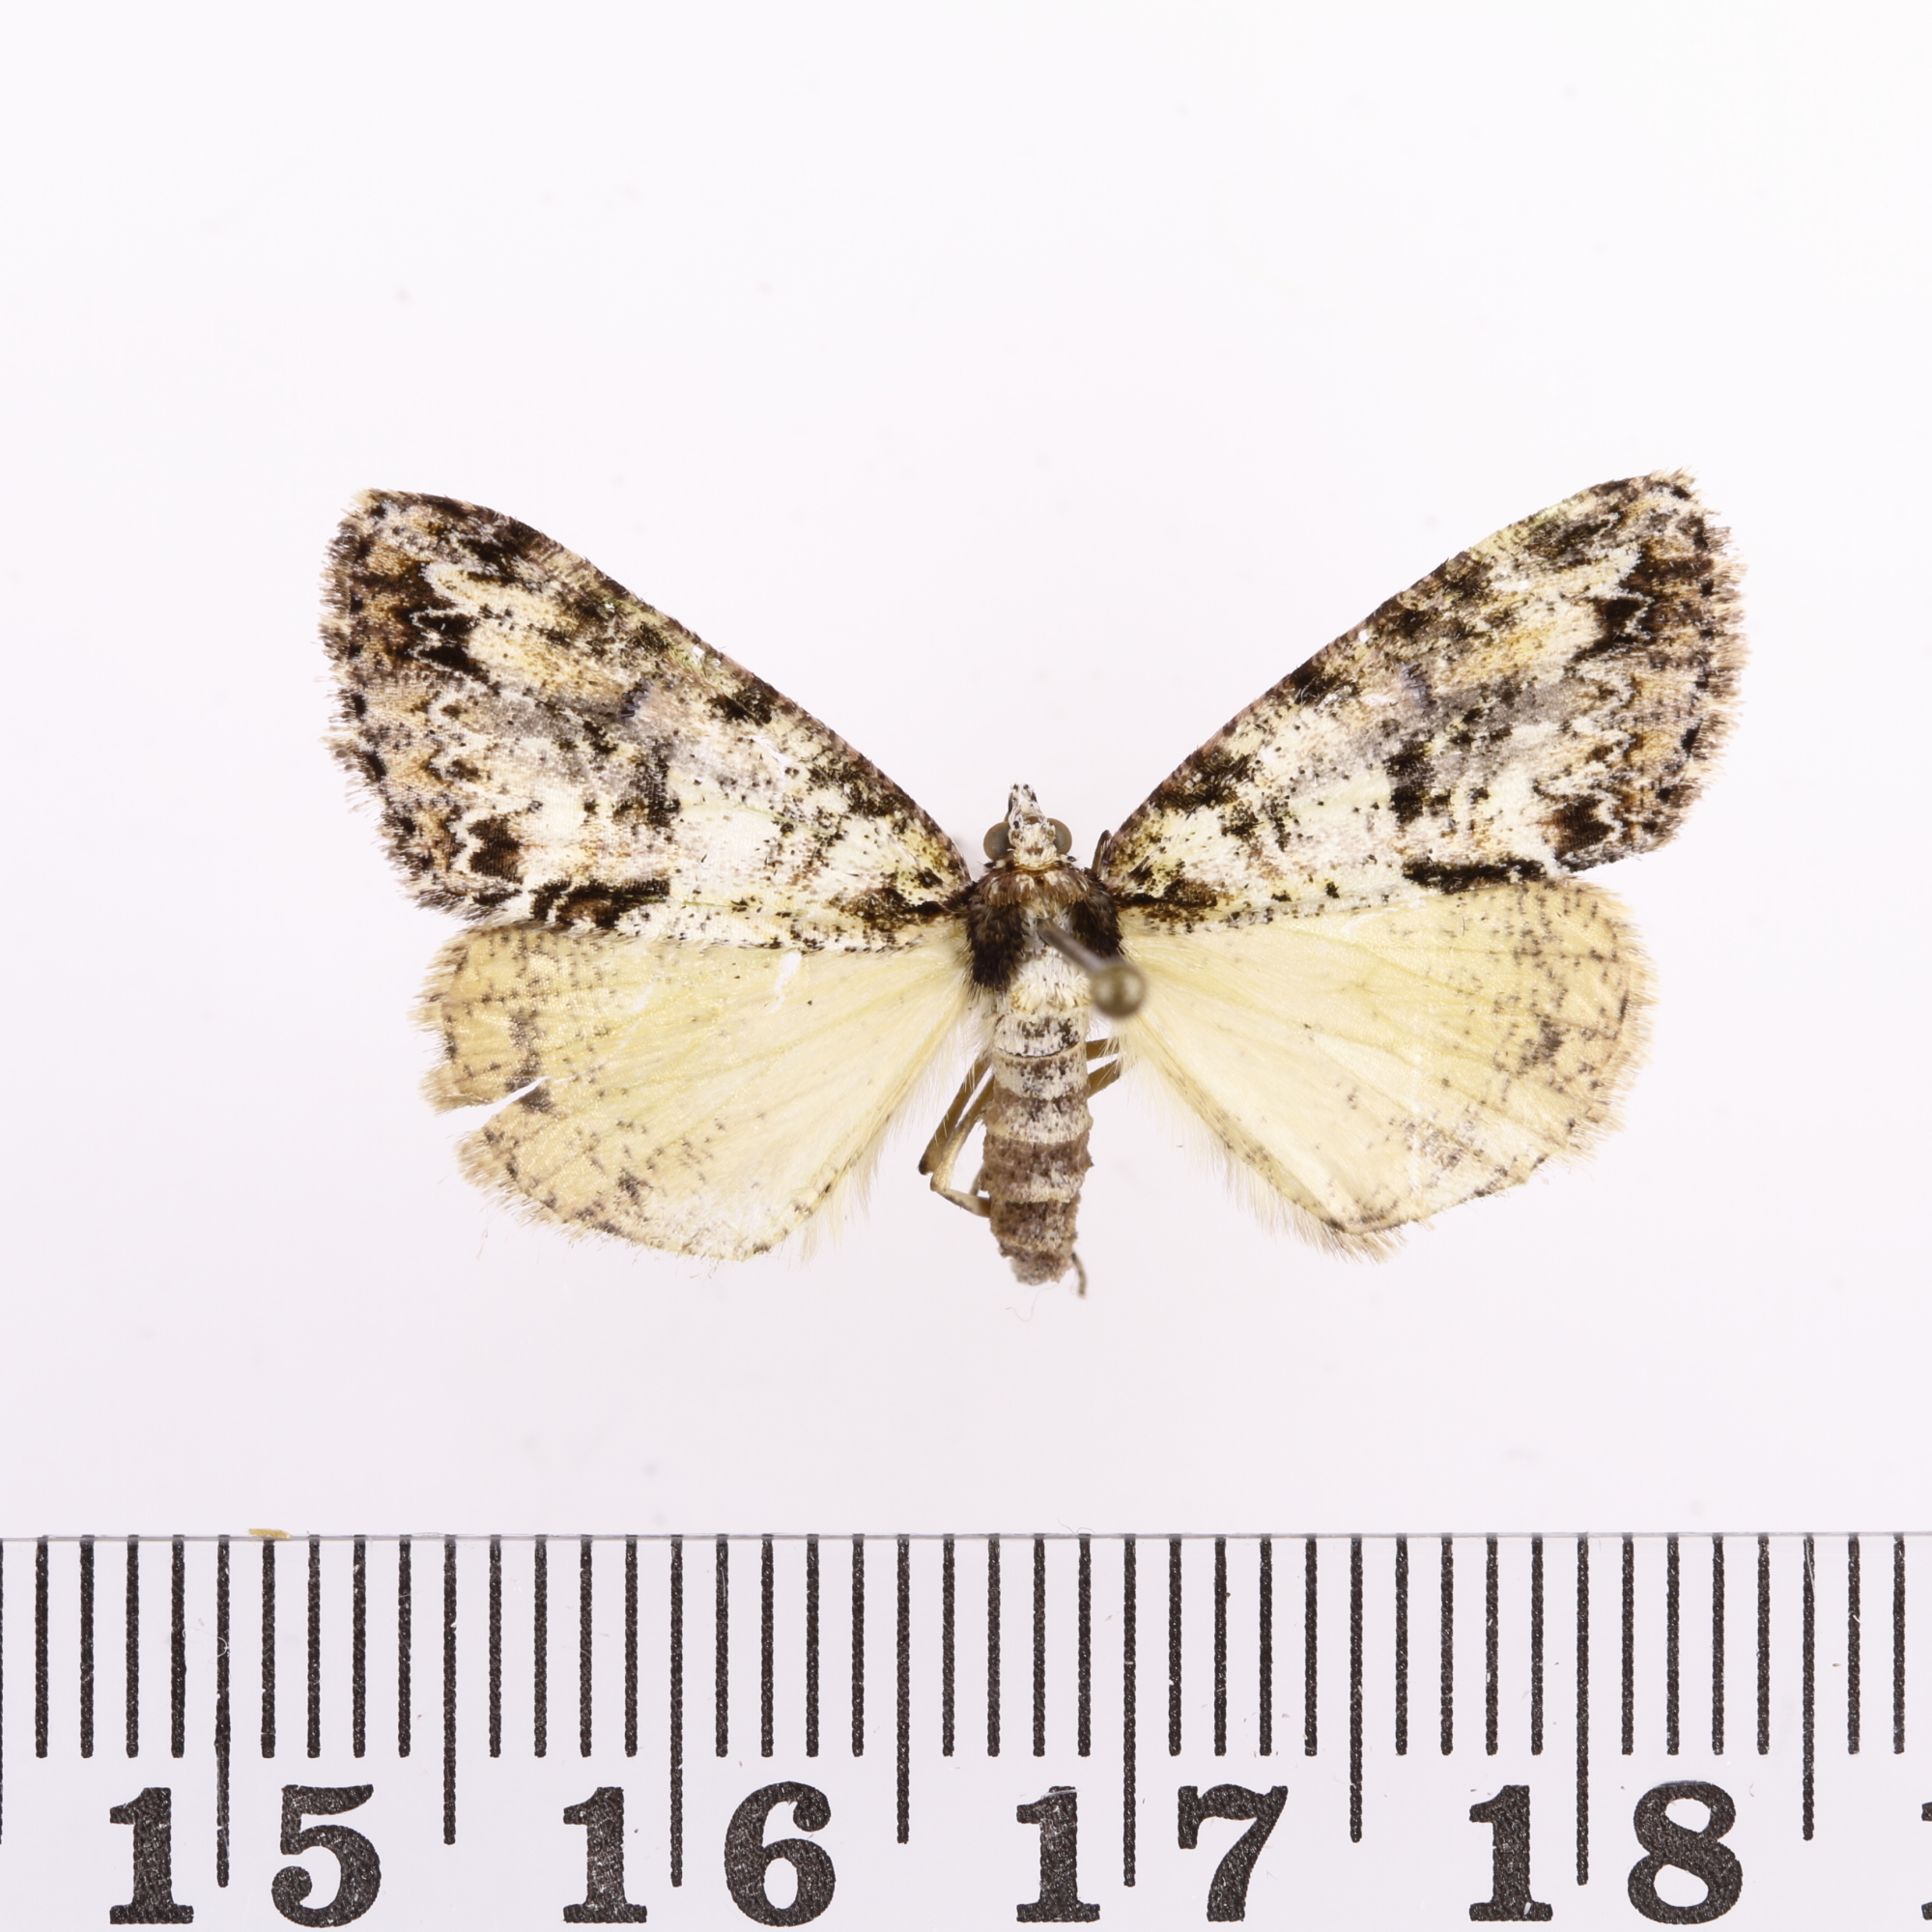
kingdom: Animalia
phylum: Arthropoda
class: Insecta
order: Lepidoptera
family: Geometridae
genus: Pseudocoremia
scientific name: Pseudocoremia suavis
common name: Common forest looper
